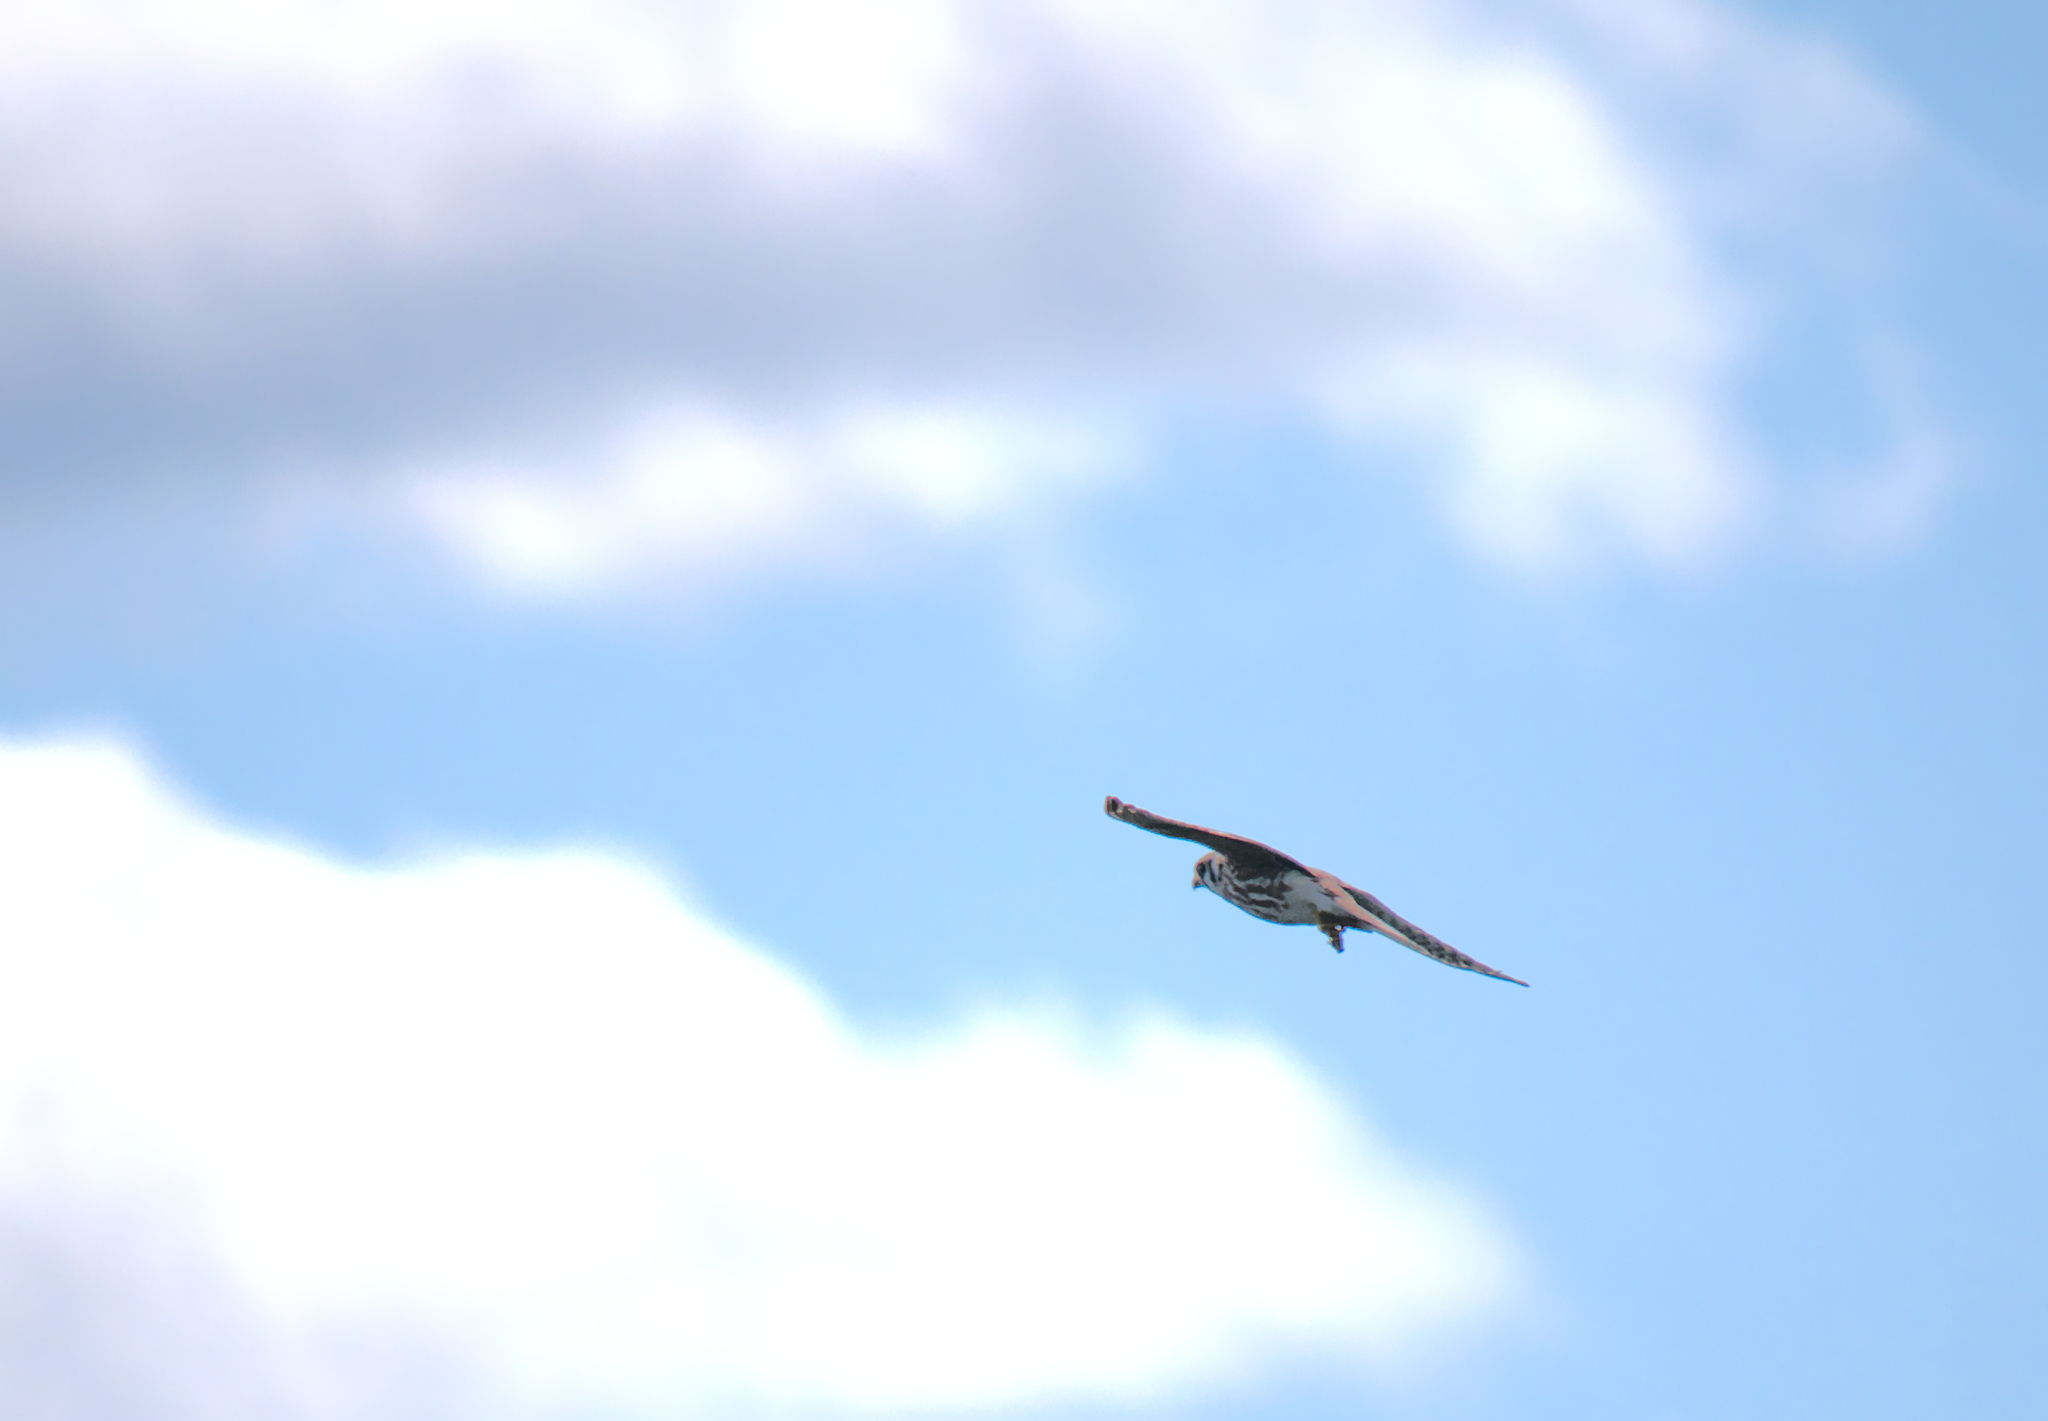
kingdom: Animalia
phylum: Chordata
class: Aves
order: Falconiformes
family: Falconidae
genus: Falco
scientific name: Falco sparverius
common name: American kestrel
